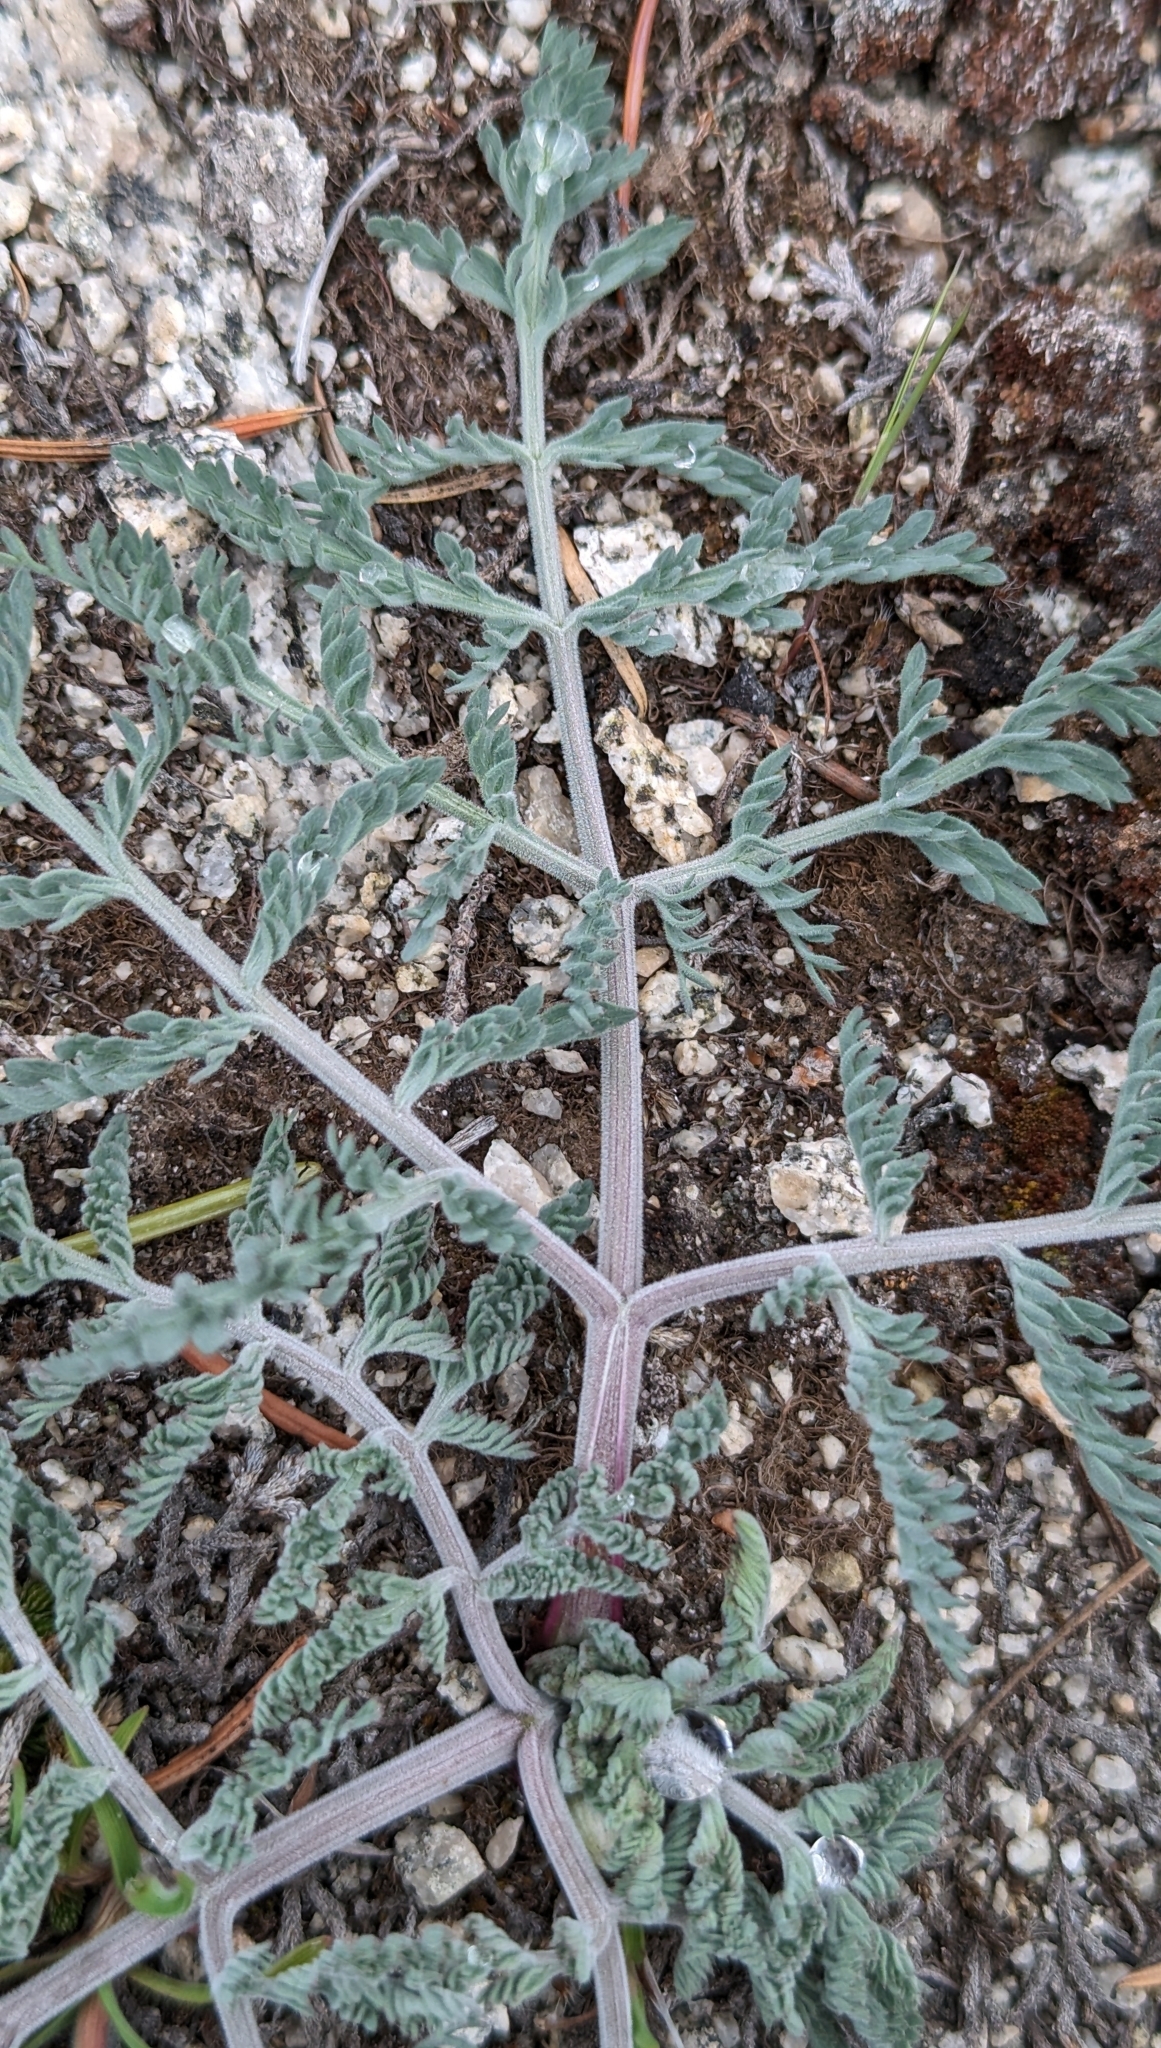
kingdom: Plantae
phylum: Tracheophyta
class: Magnoliopsida
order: Apiales
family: Apiaceae
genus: Lomatium
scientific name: Lomatium macrocarpum
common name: Big-seed biscuitroot
